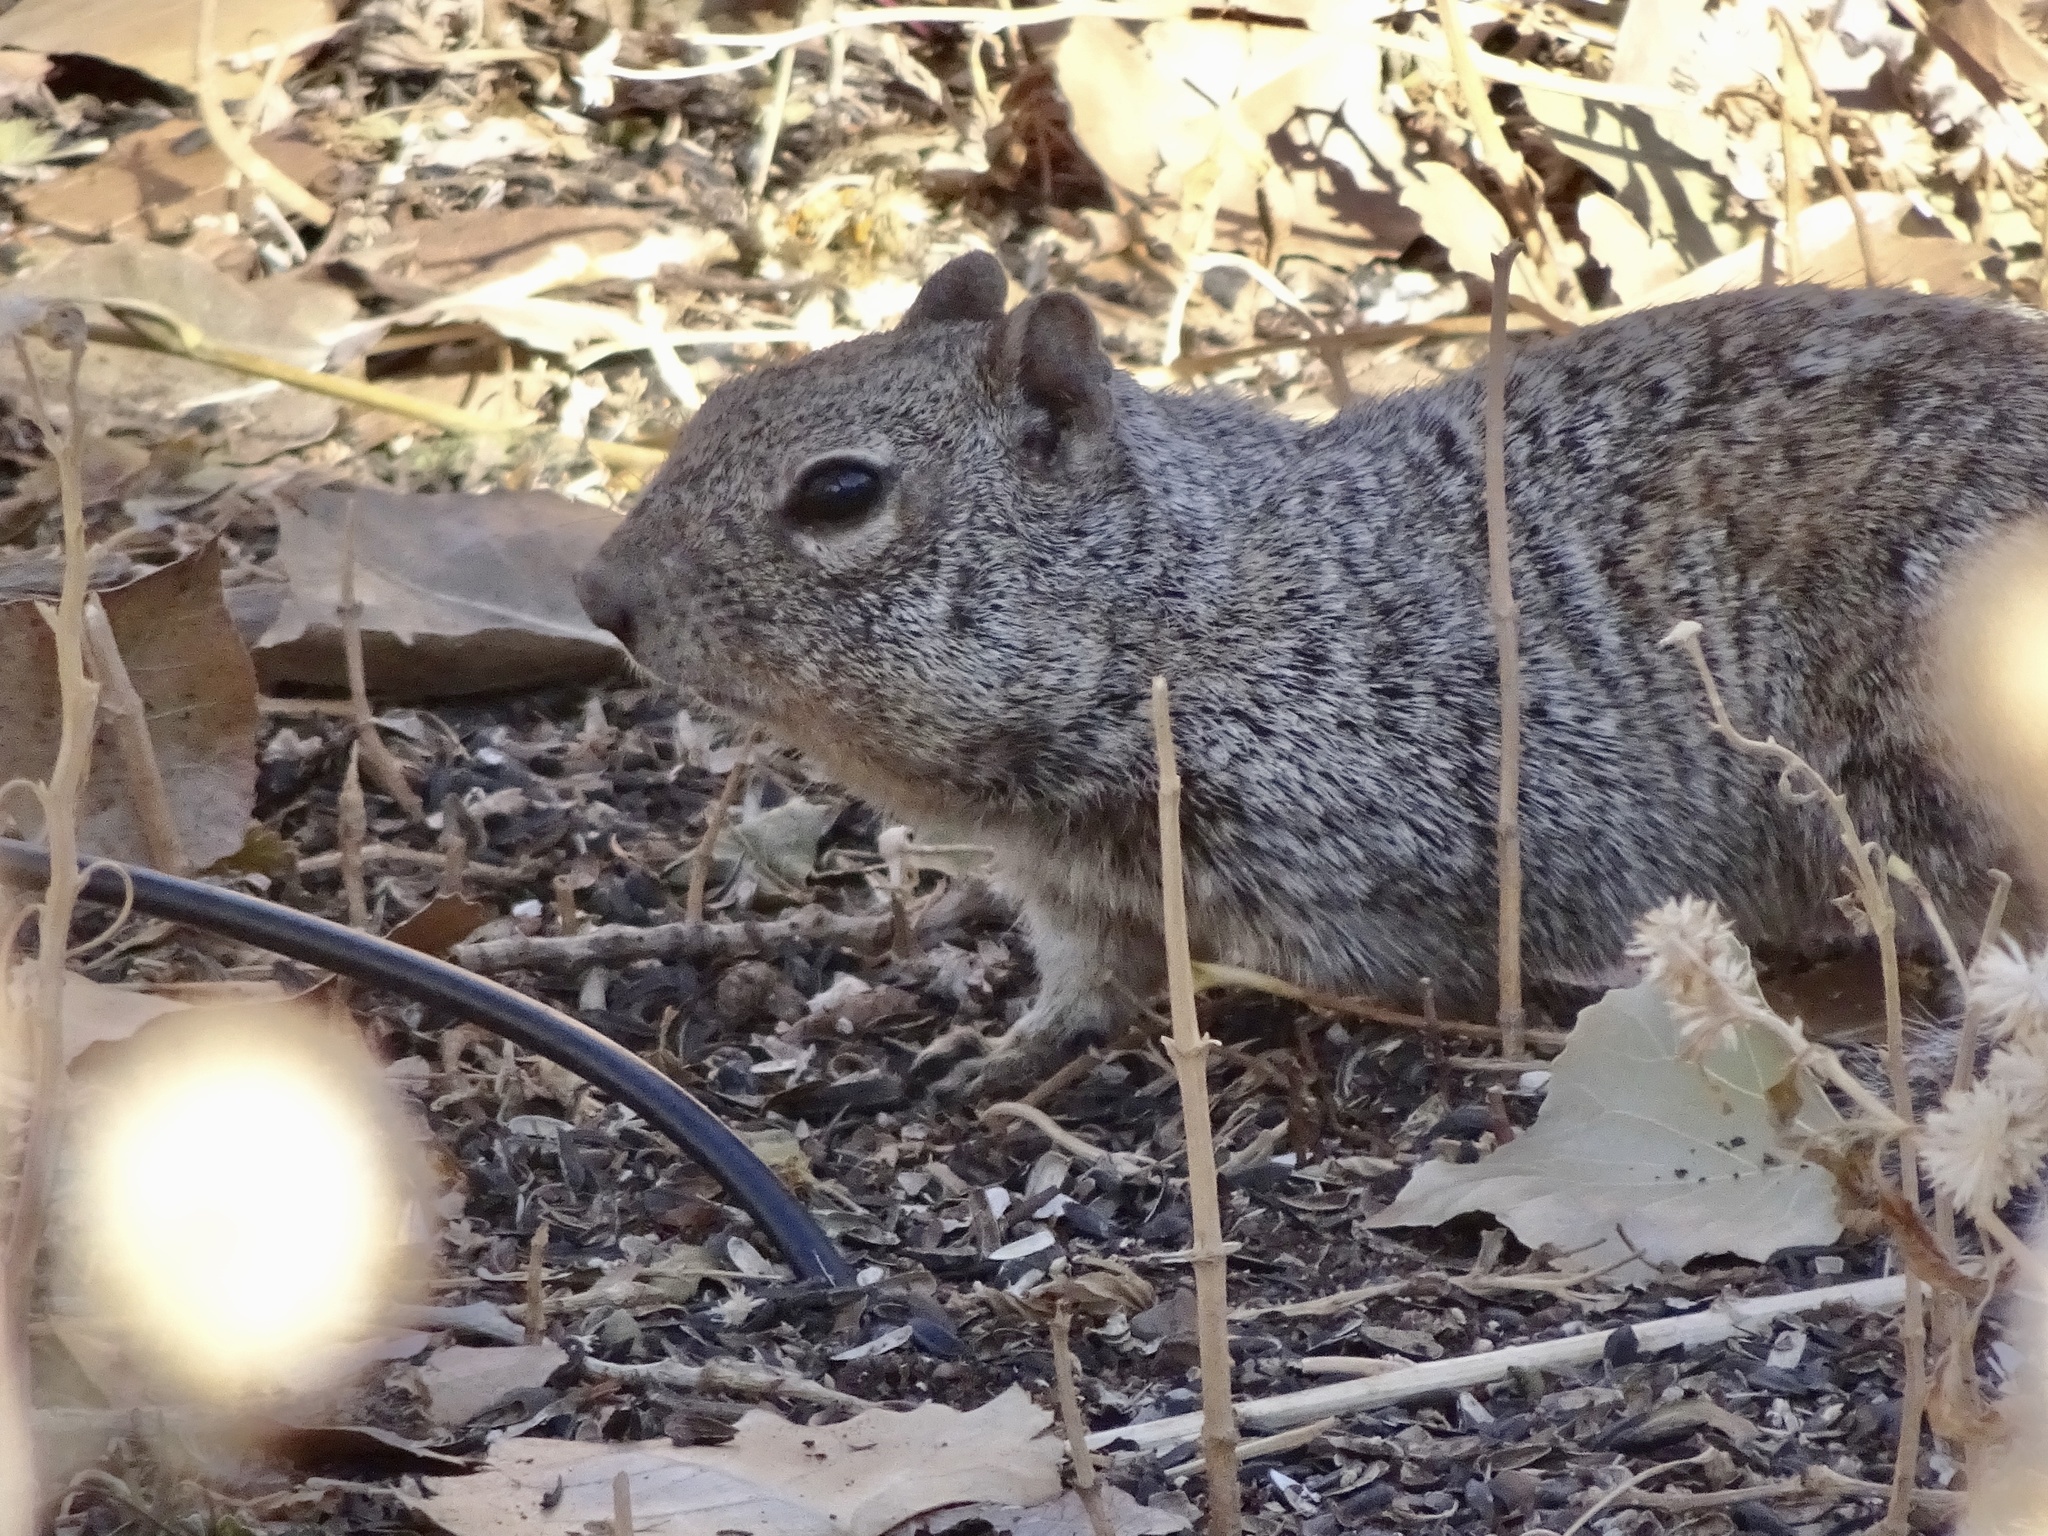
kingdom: Animalia
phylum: Chordata
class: Mammalia
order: Rodentia
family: Sciuridae
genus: Otospermophilus
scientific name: Otospermophilus variegatus
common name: Rock squirrel
